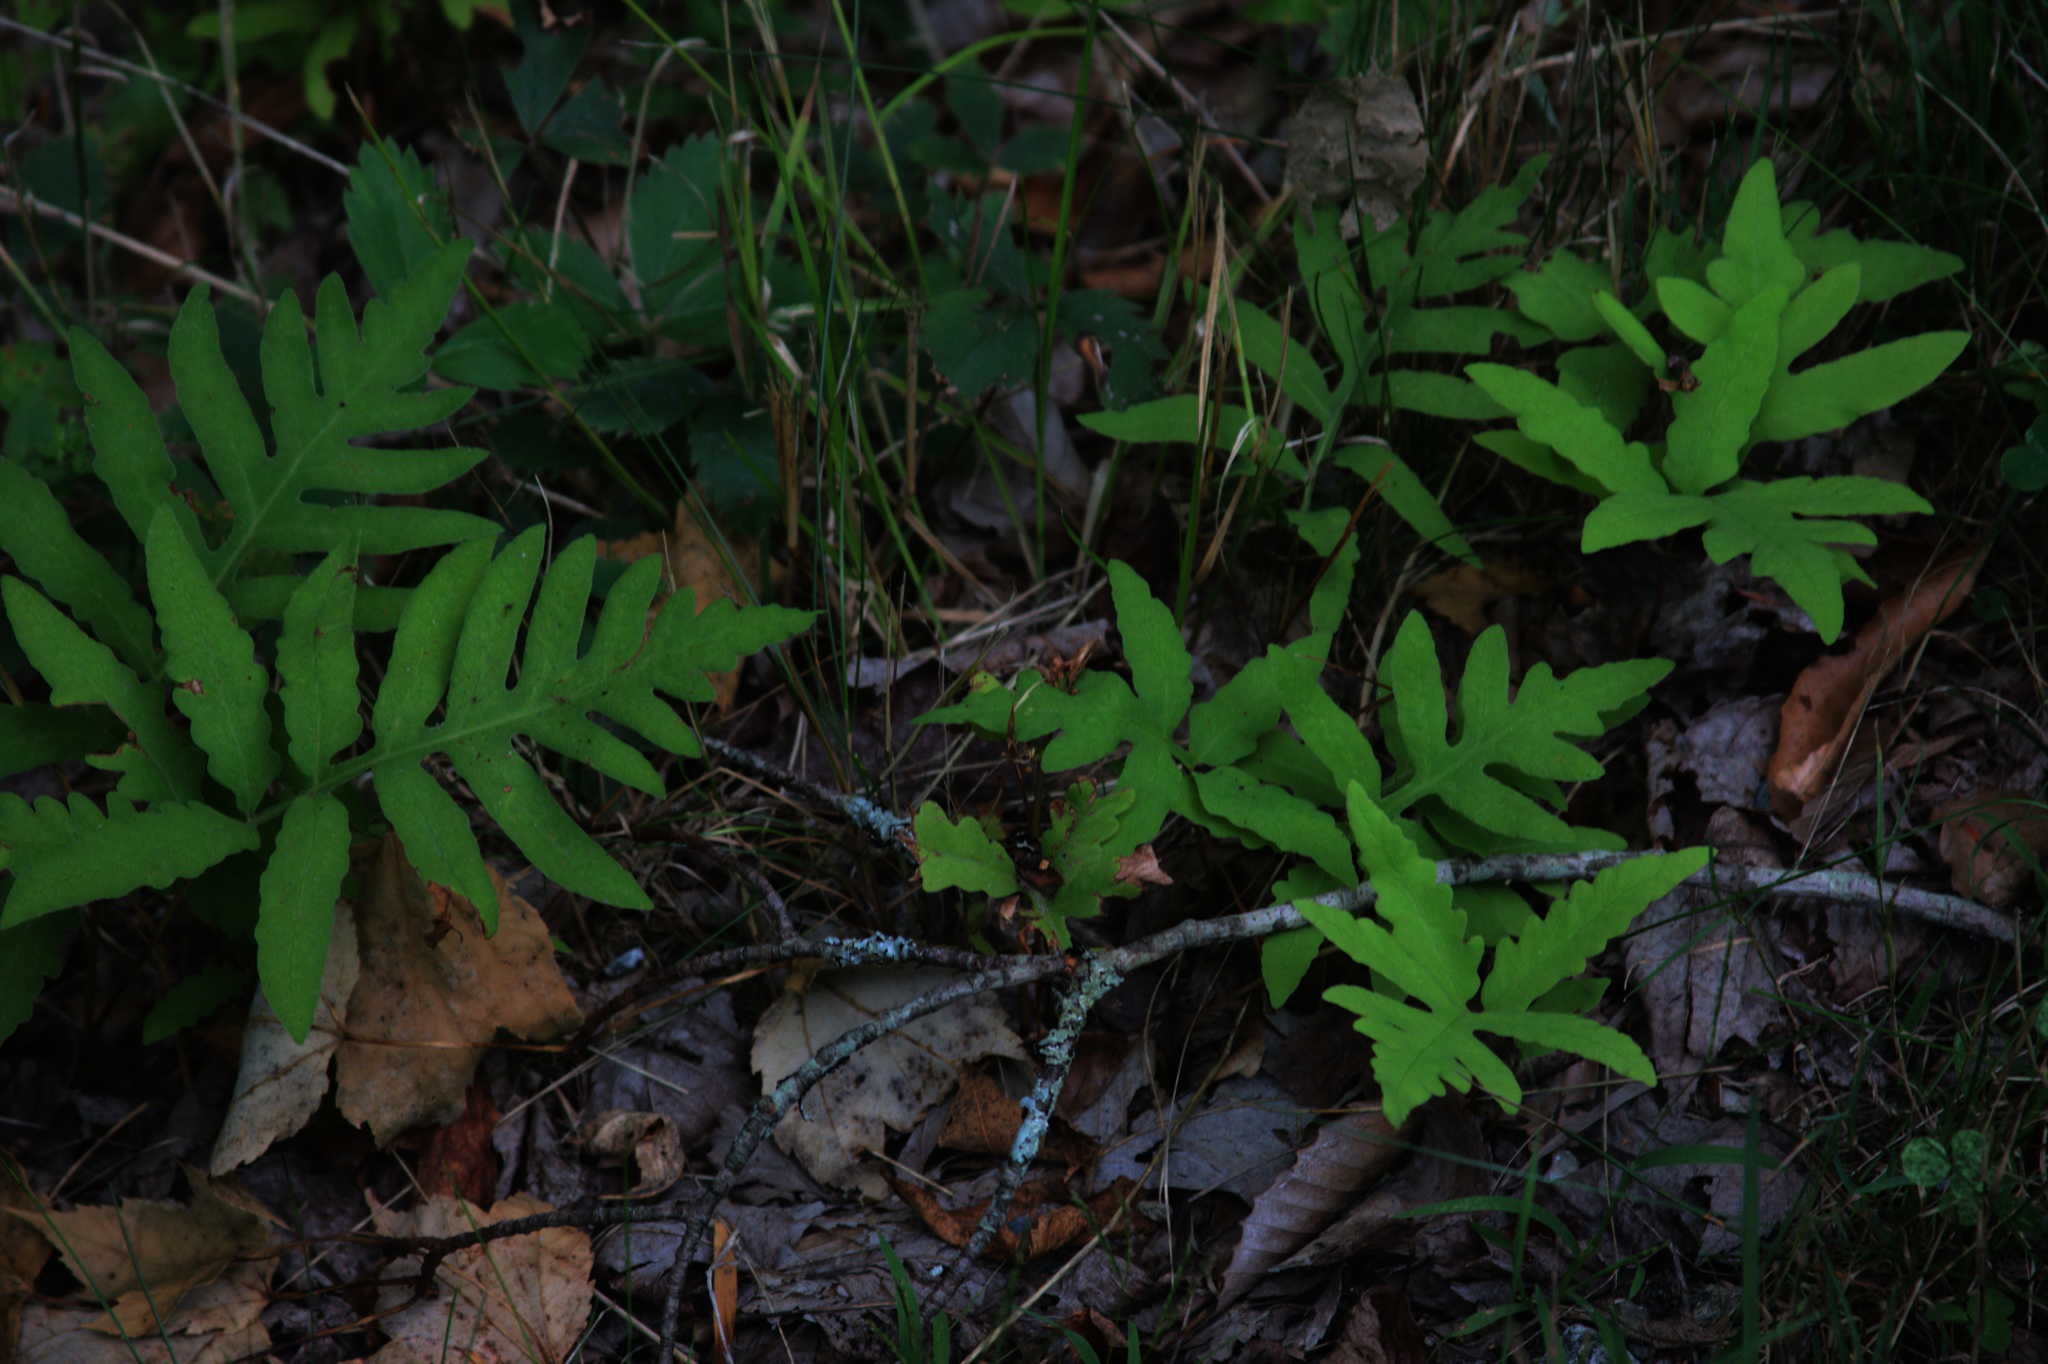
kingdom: Plantae
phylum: Tracheophyta
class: Polypodiopsida
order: Polypodiales
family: Onocleaceae
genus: Onoclea
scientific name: Onoclea sensibilis
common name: Sensitive fern
